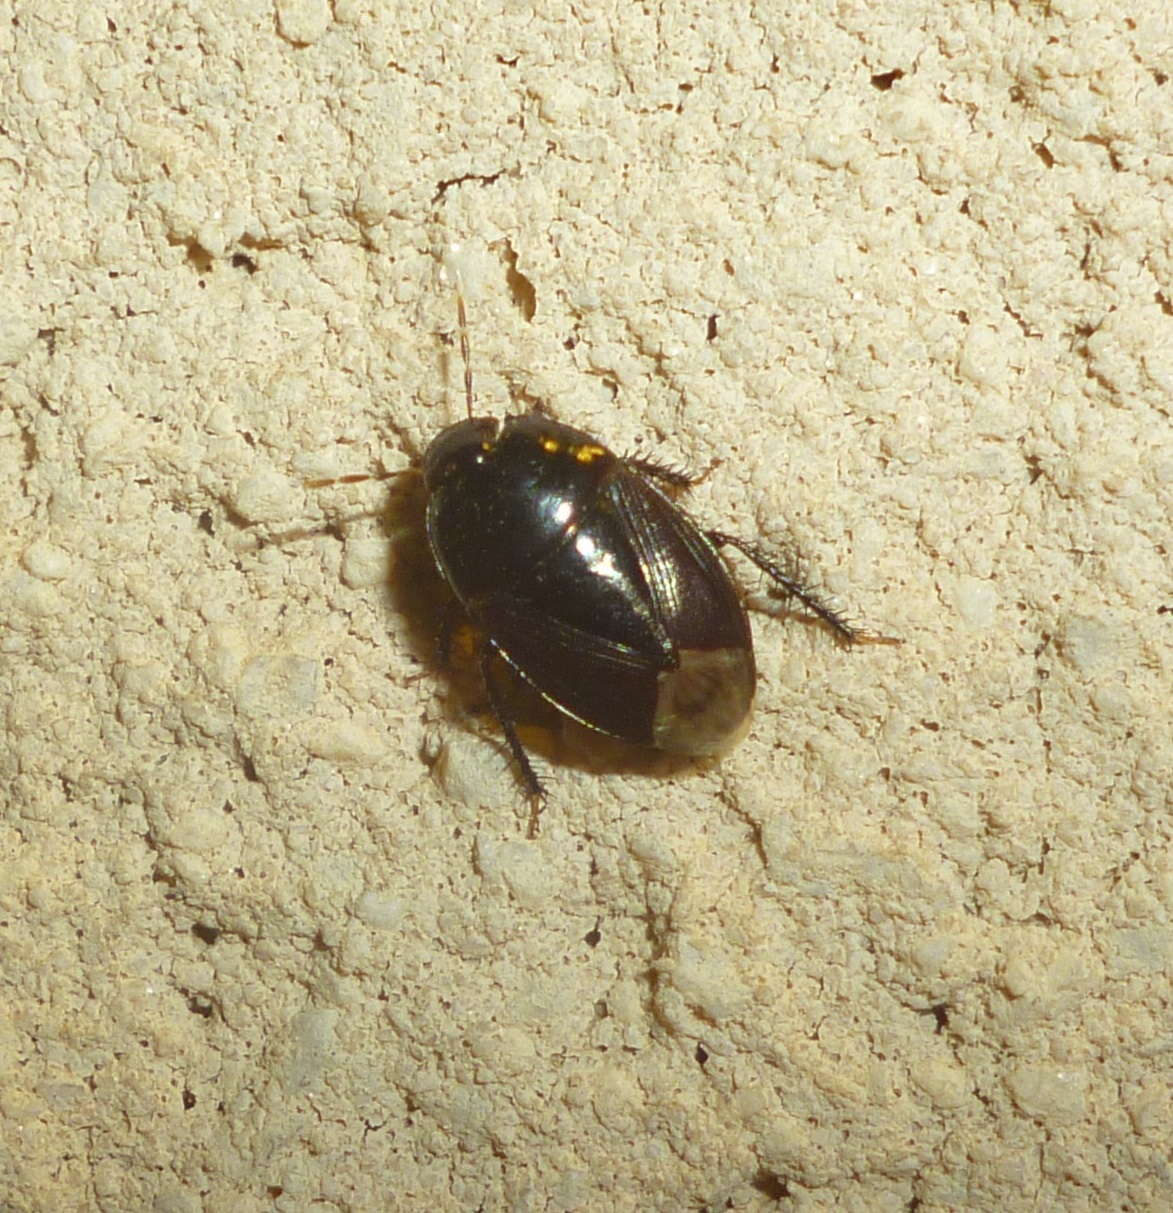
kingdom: Animalia
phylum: Arthropoda
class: Insecta
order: Hemiptera
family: Cydnidae
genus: Macroscytus
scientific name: Macroscytus brunneus
